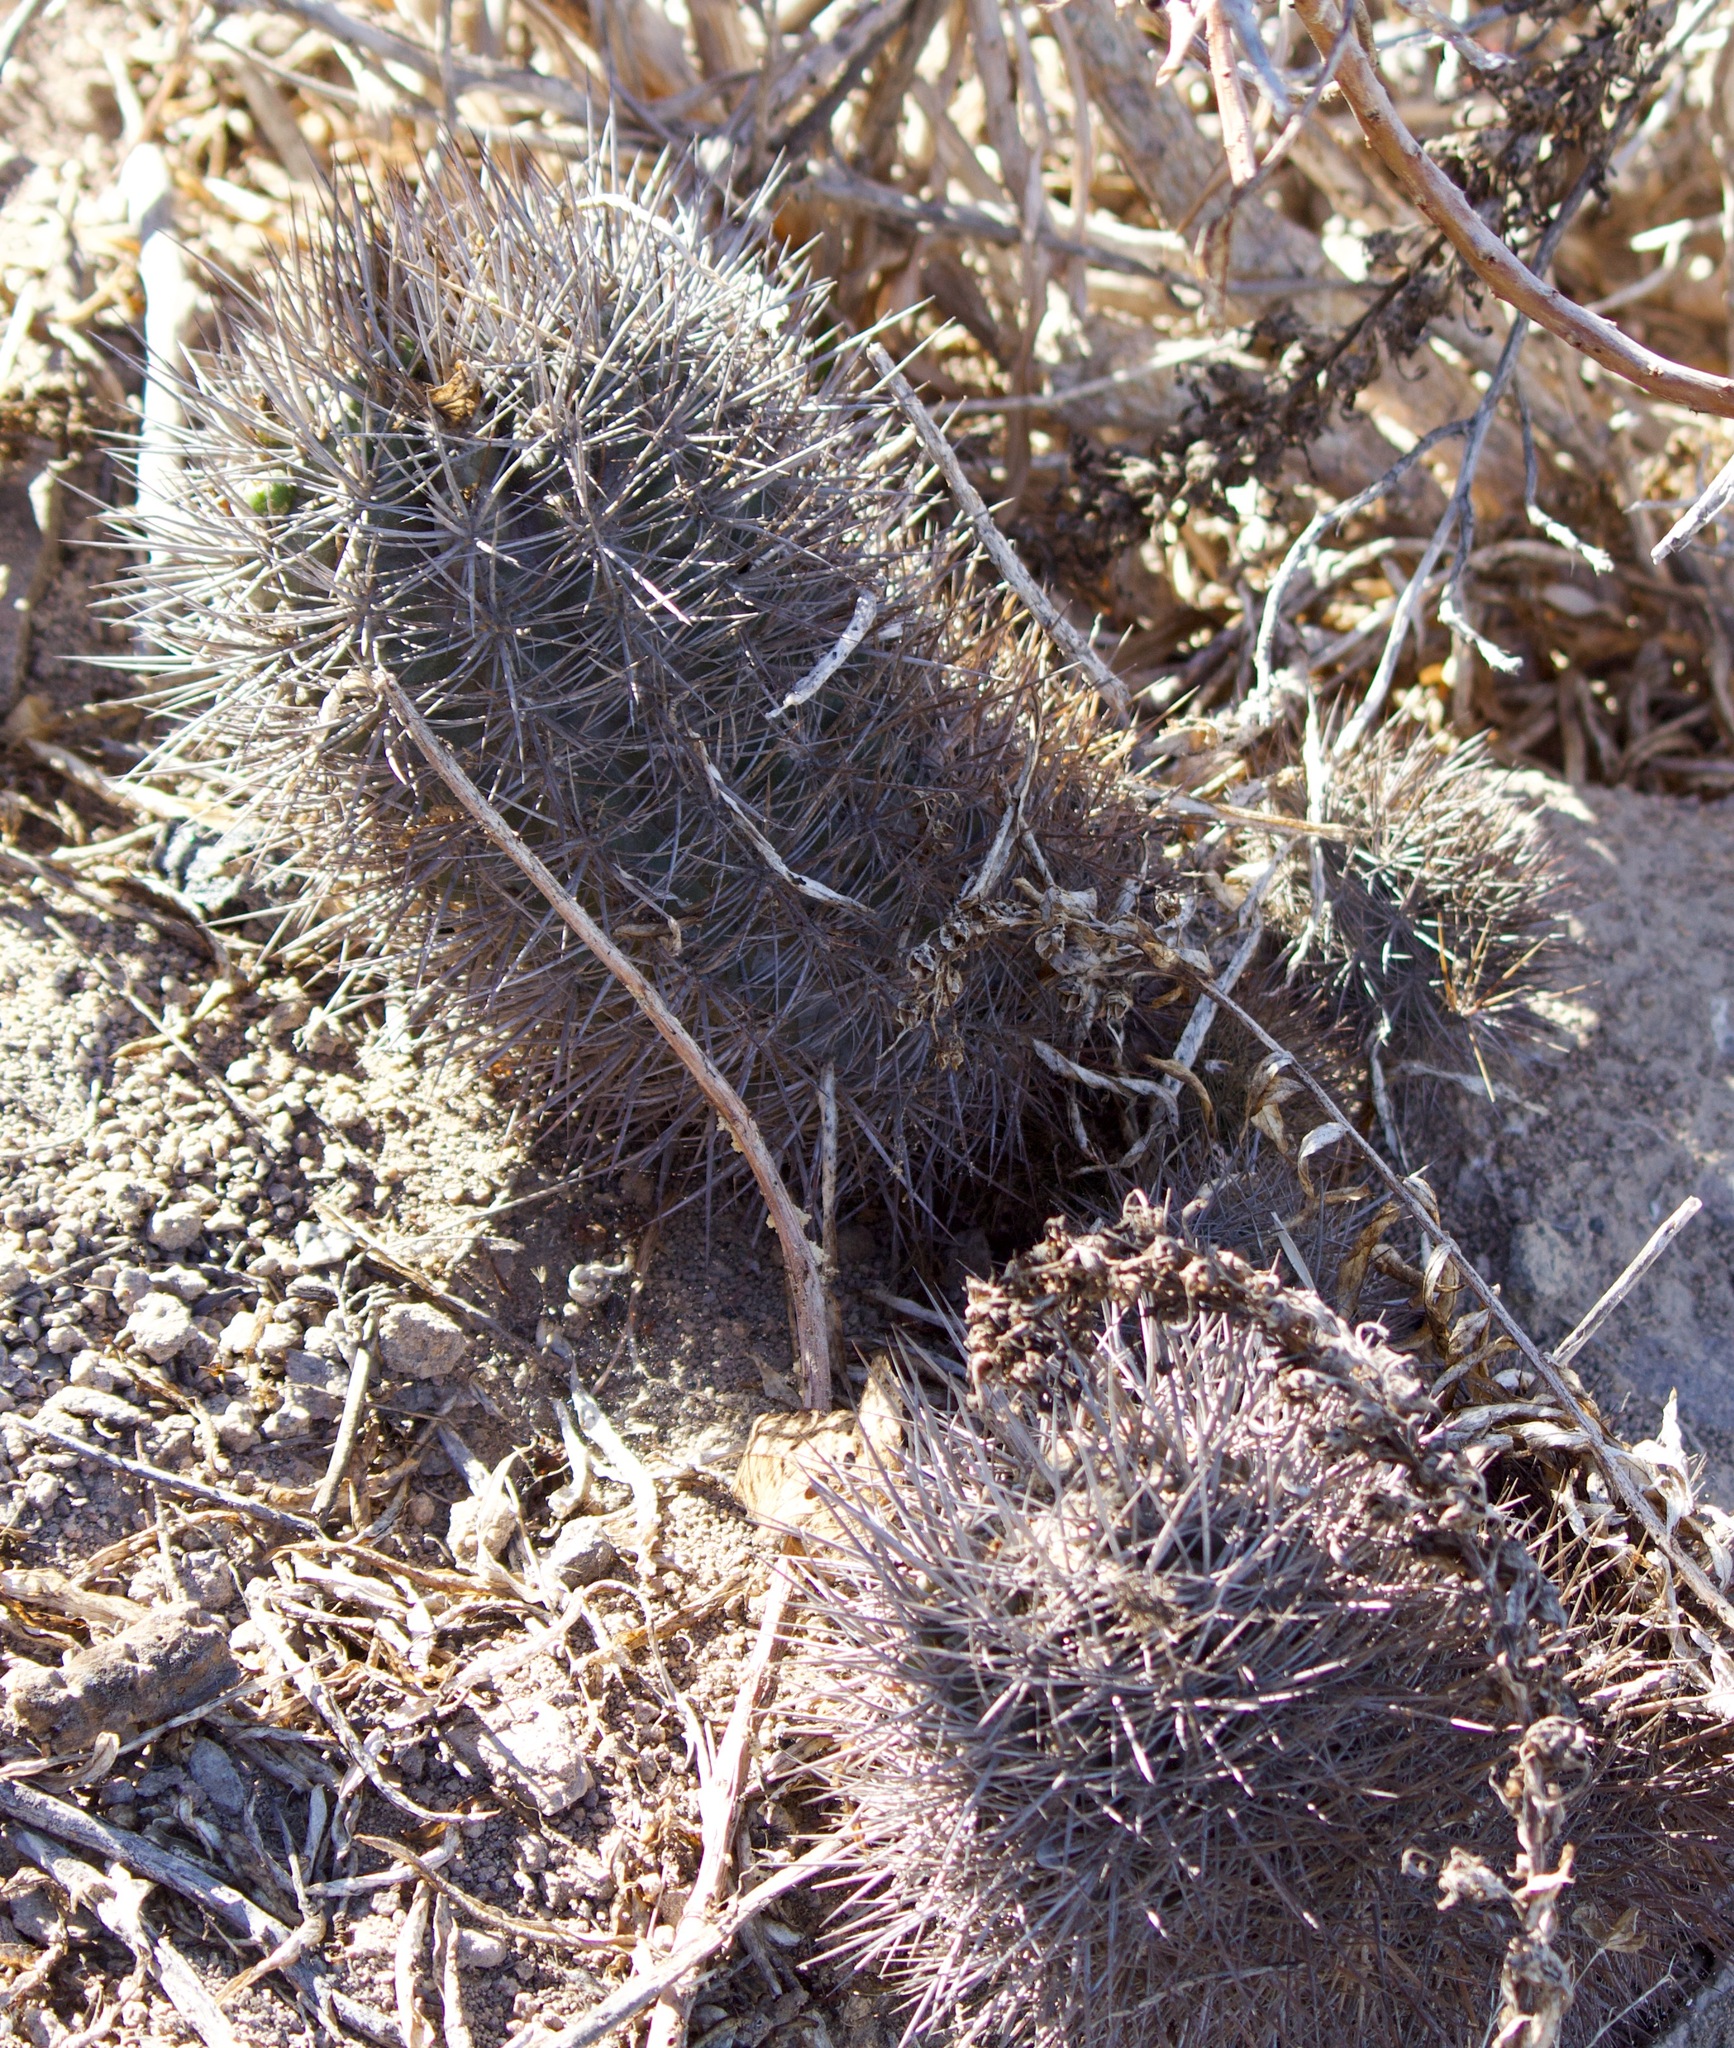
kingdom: Plantae
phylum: Tracheophyta
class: Magnoliopsida
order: Caryophyllales
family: Cactaceae
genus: Eriosyce
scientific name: Eriosyce wagenknechtii
